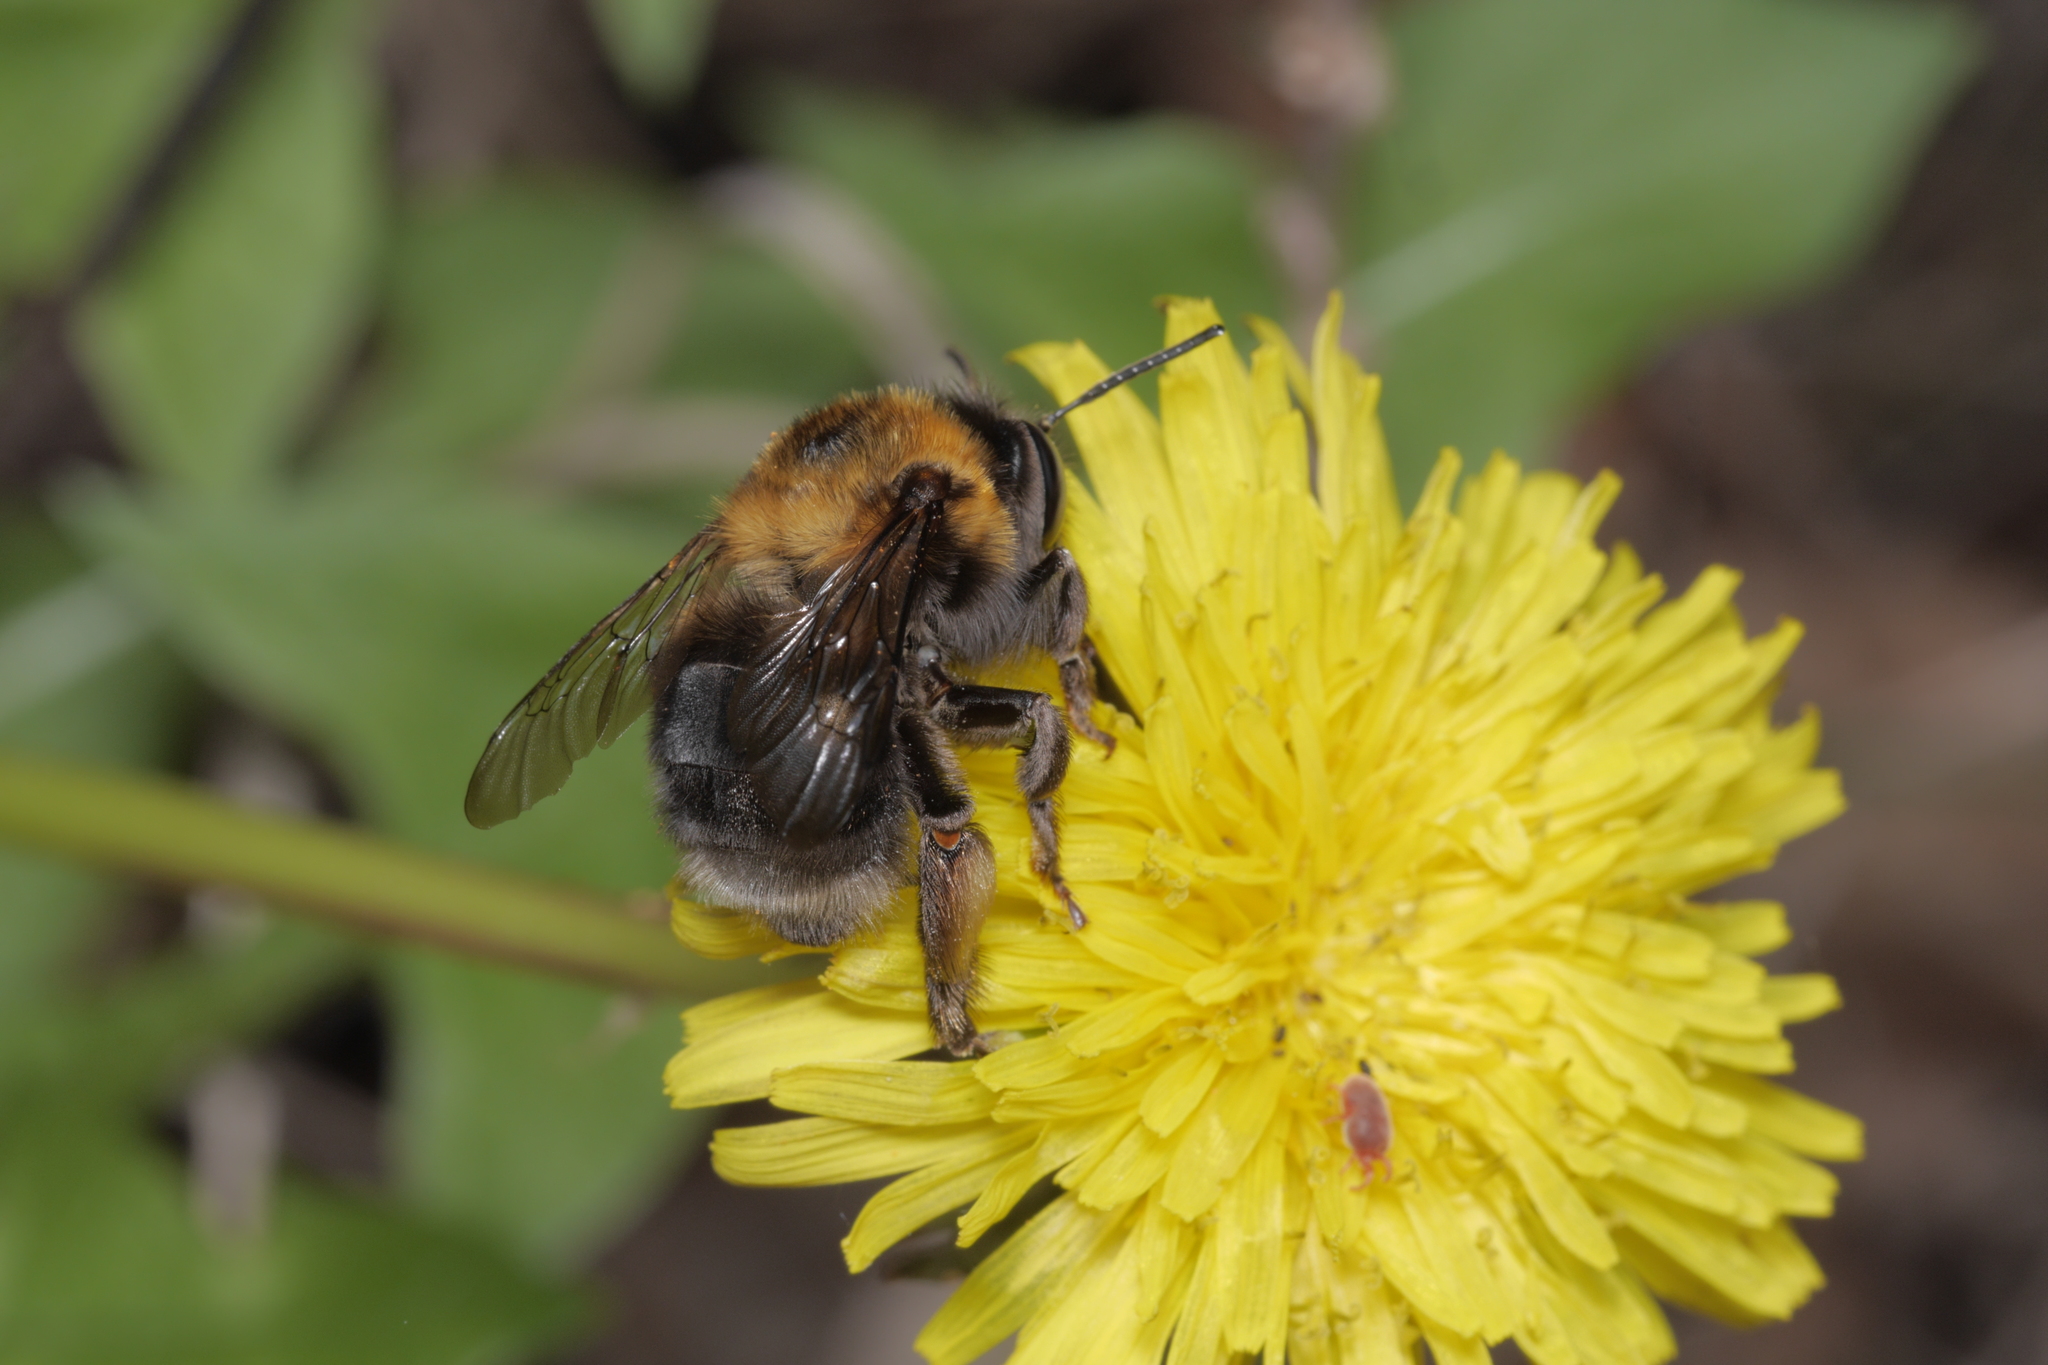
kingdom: Animalia
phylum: Arthropoda
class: Insecta
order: Hymenoptera
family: Apidae
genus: Habropoda
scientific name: Habropoda tarsata
